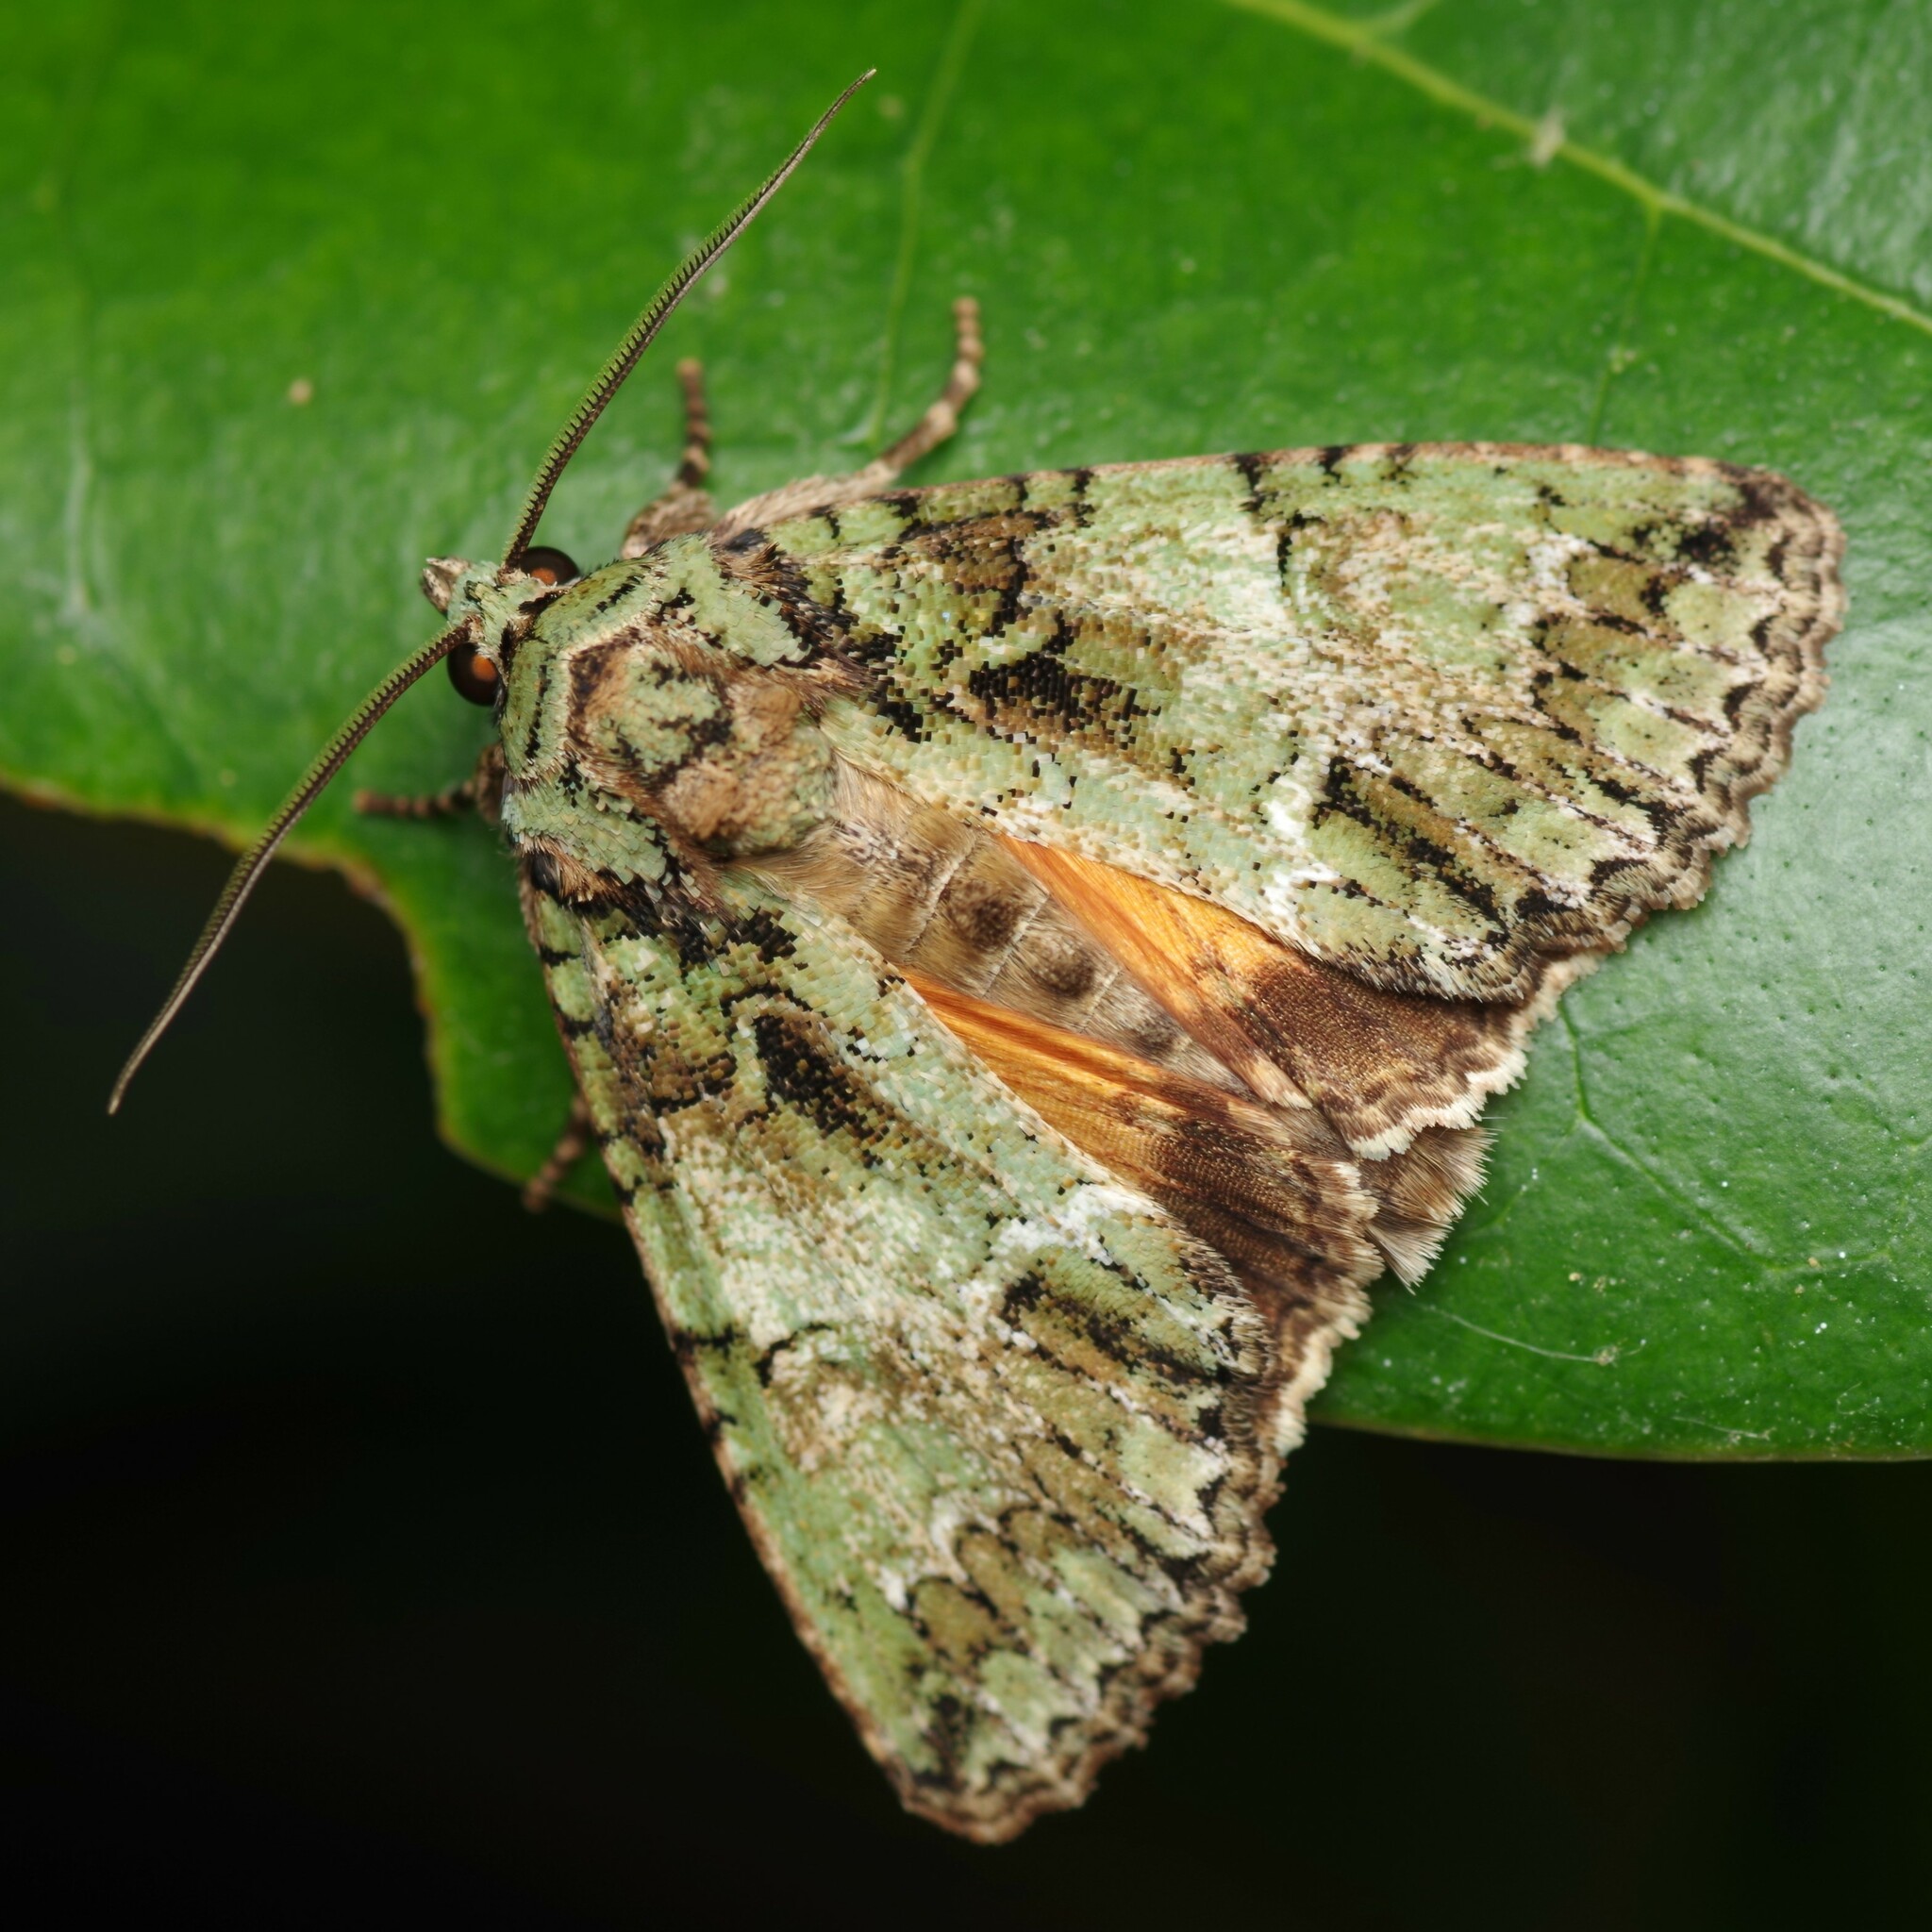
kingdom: Animalia
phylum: Arthropoda
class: Insecta
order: Lepidoptera
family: Noctuidae
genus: Polyphaenis
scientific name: Polyphaenis sericata
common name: Guernsey underwing
